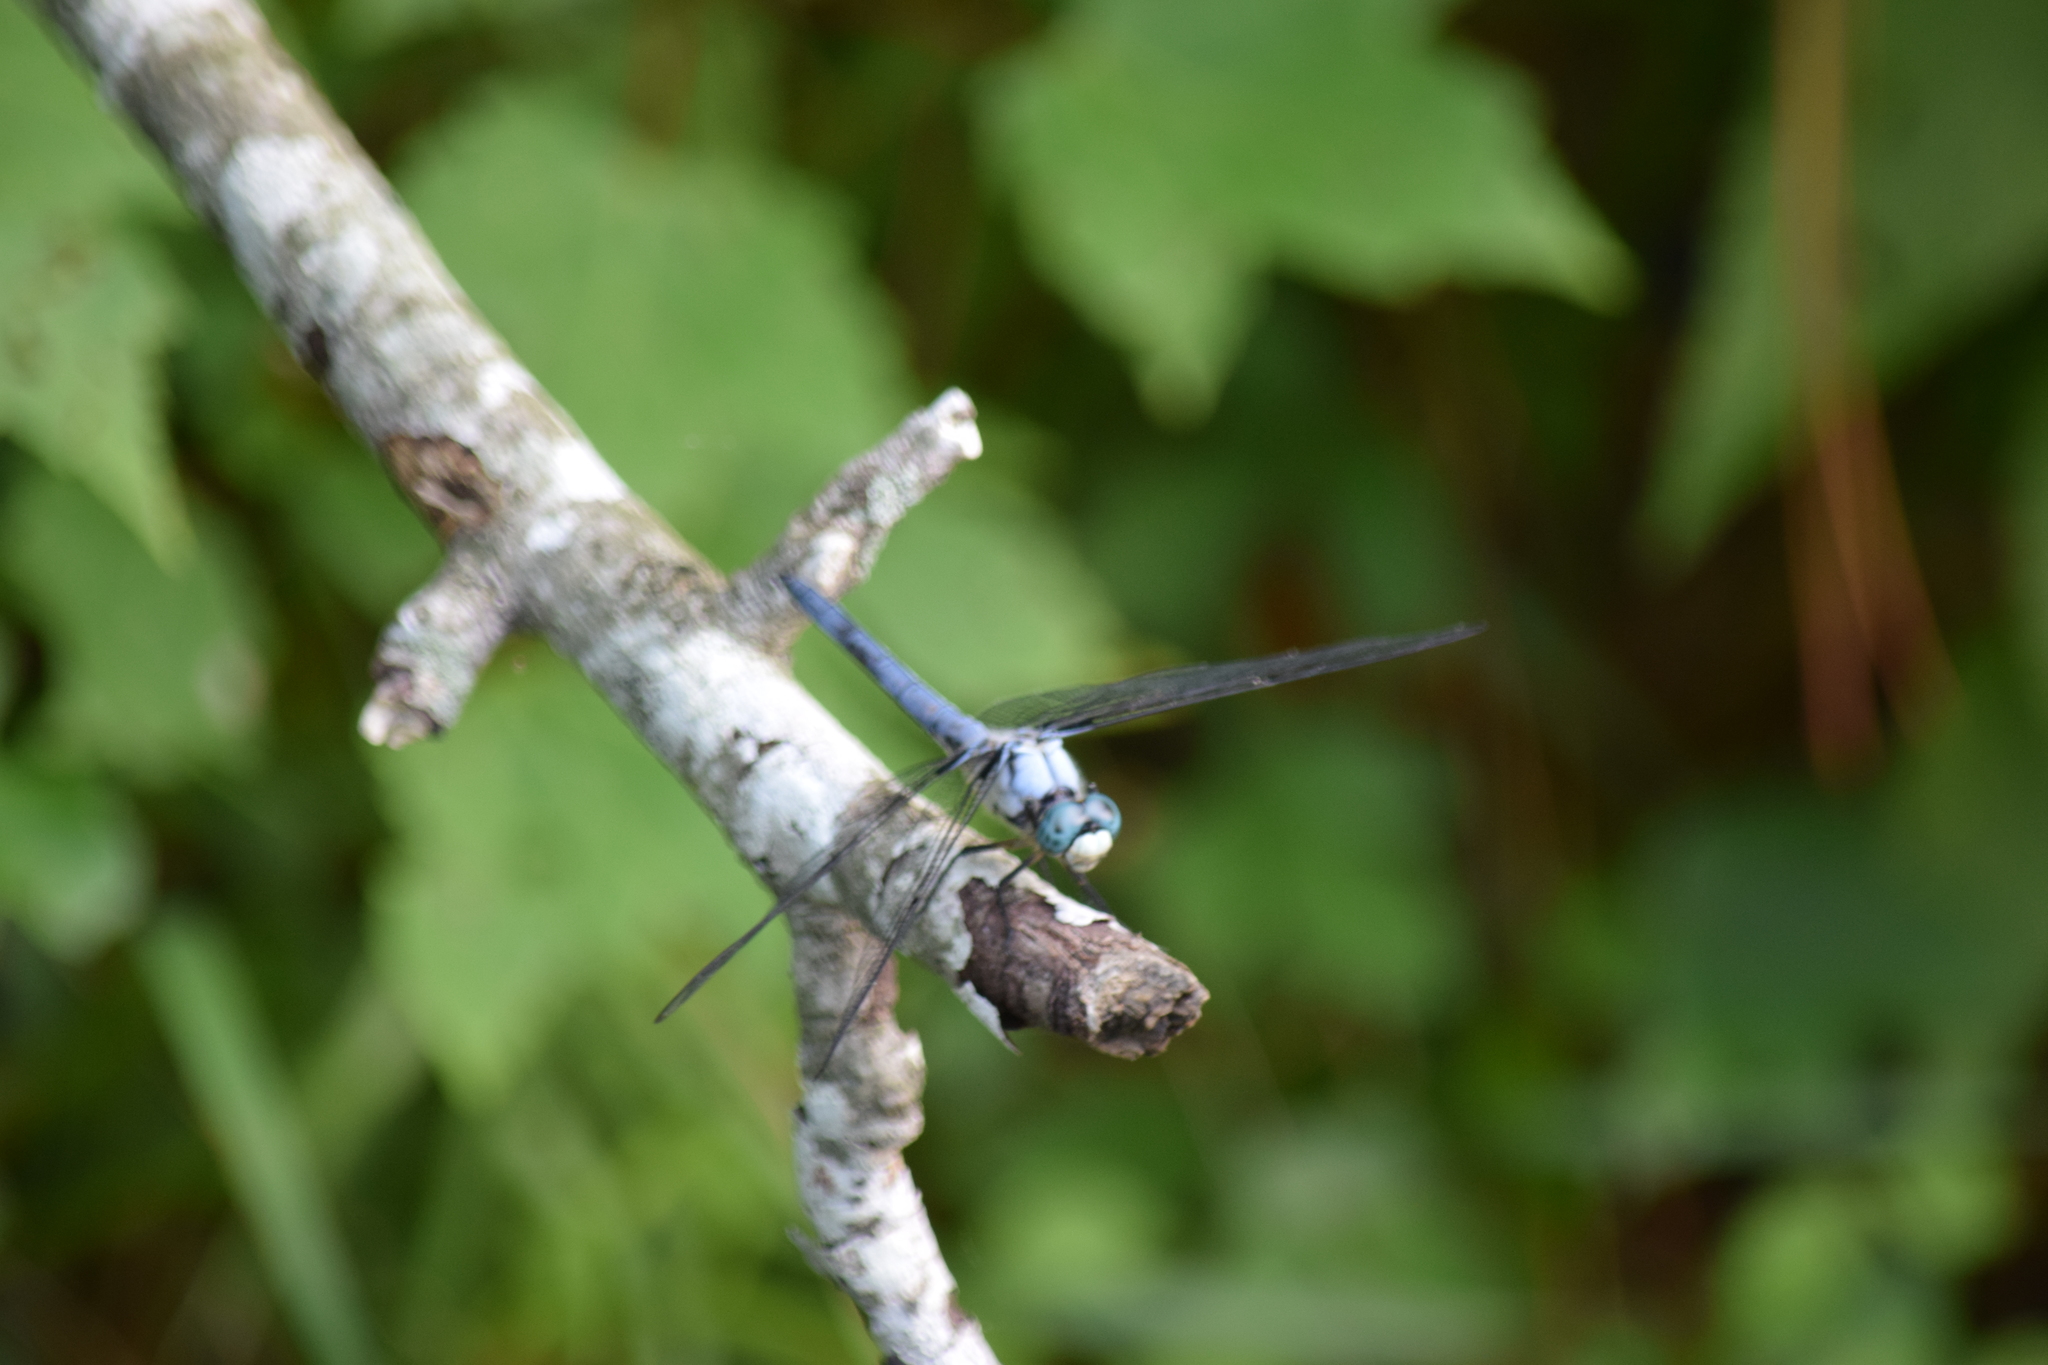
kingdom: Animalia
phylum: Arthropoda
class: Insecta
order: Odonata
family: Libellulidae
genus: Libellula
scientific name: Libellula vibrans
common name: Great blue skimmer
